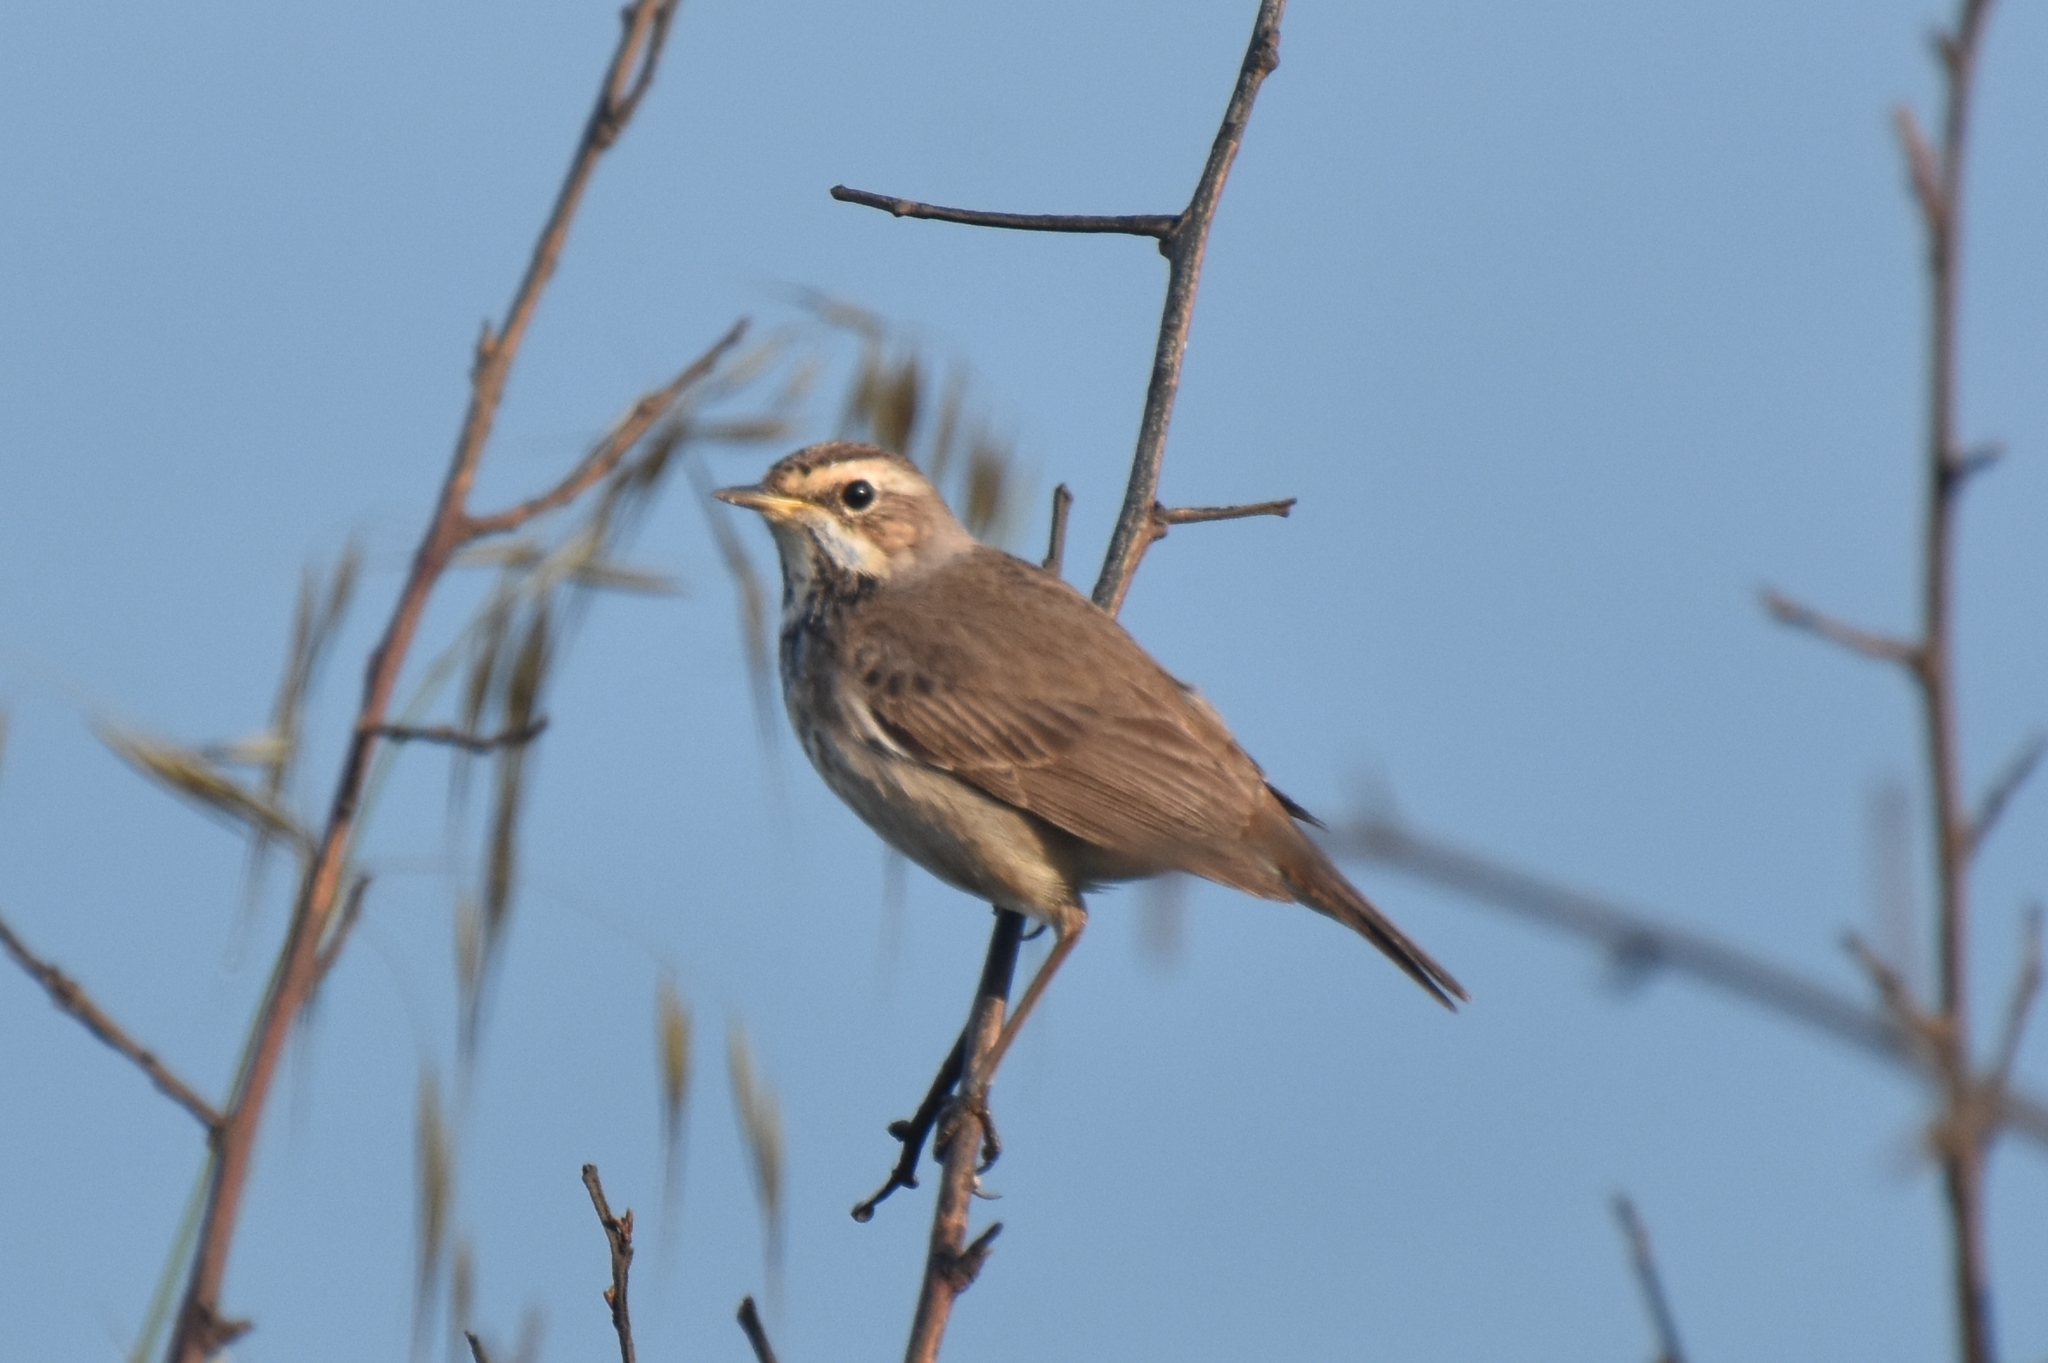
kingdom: Animalia
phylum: Chordata
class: Aves
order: Passeriformes
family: Muscicapidae
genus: Luscinia
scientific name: Luscinia svecica
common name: Bluethroat
